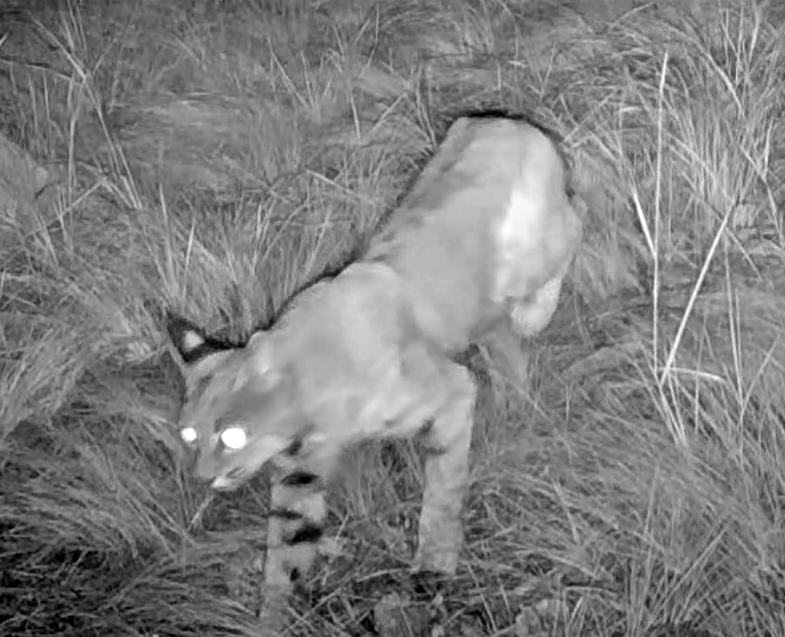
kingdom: Animalia
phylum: Chordata
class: Mammalia
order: Carnivora
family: Felidae
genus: Lynx
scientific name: Lynx rufus
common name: Bobcat
